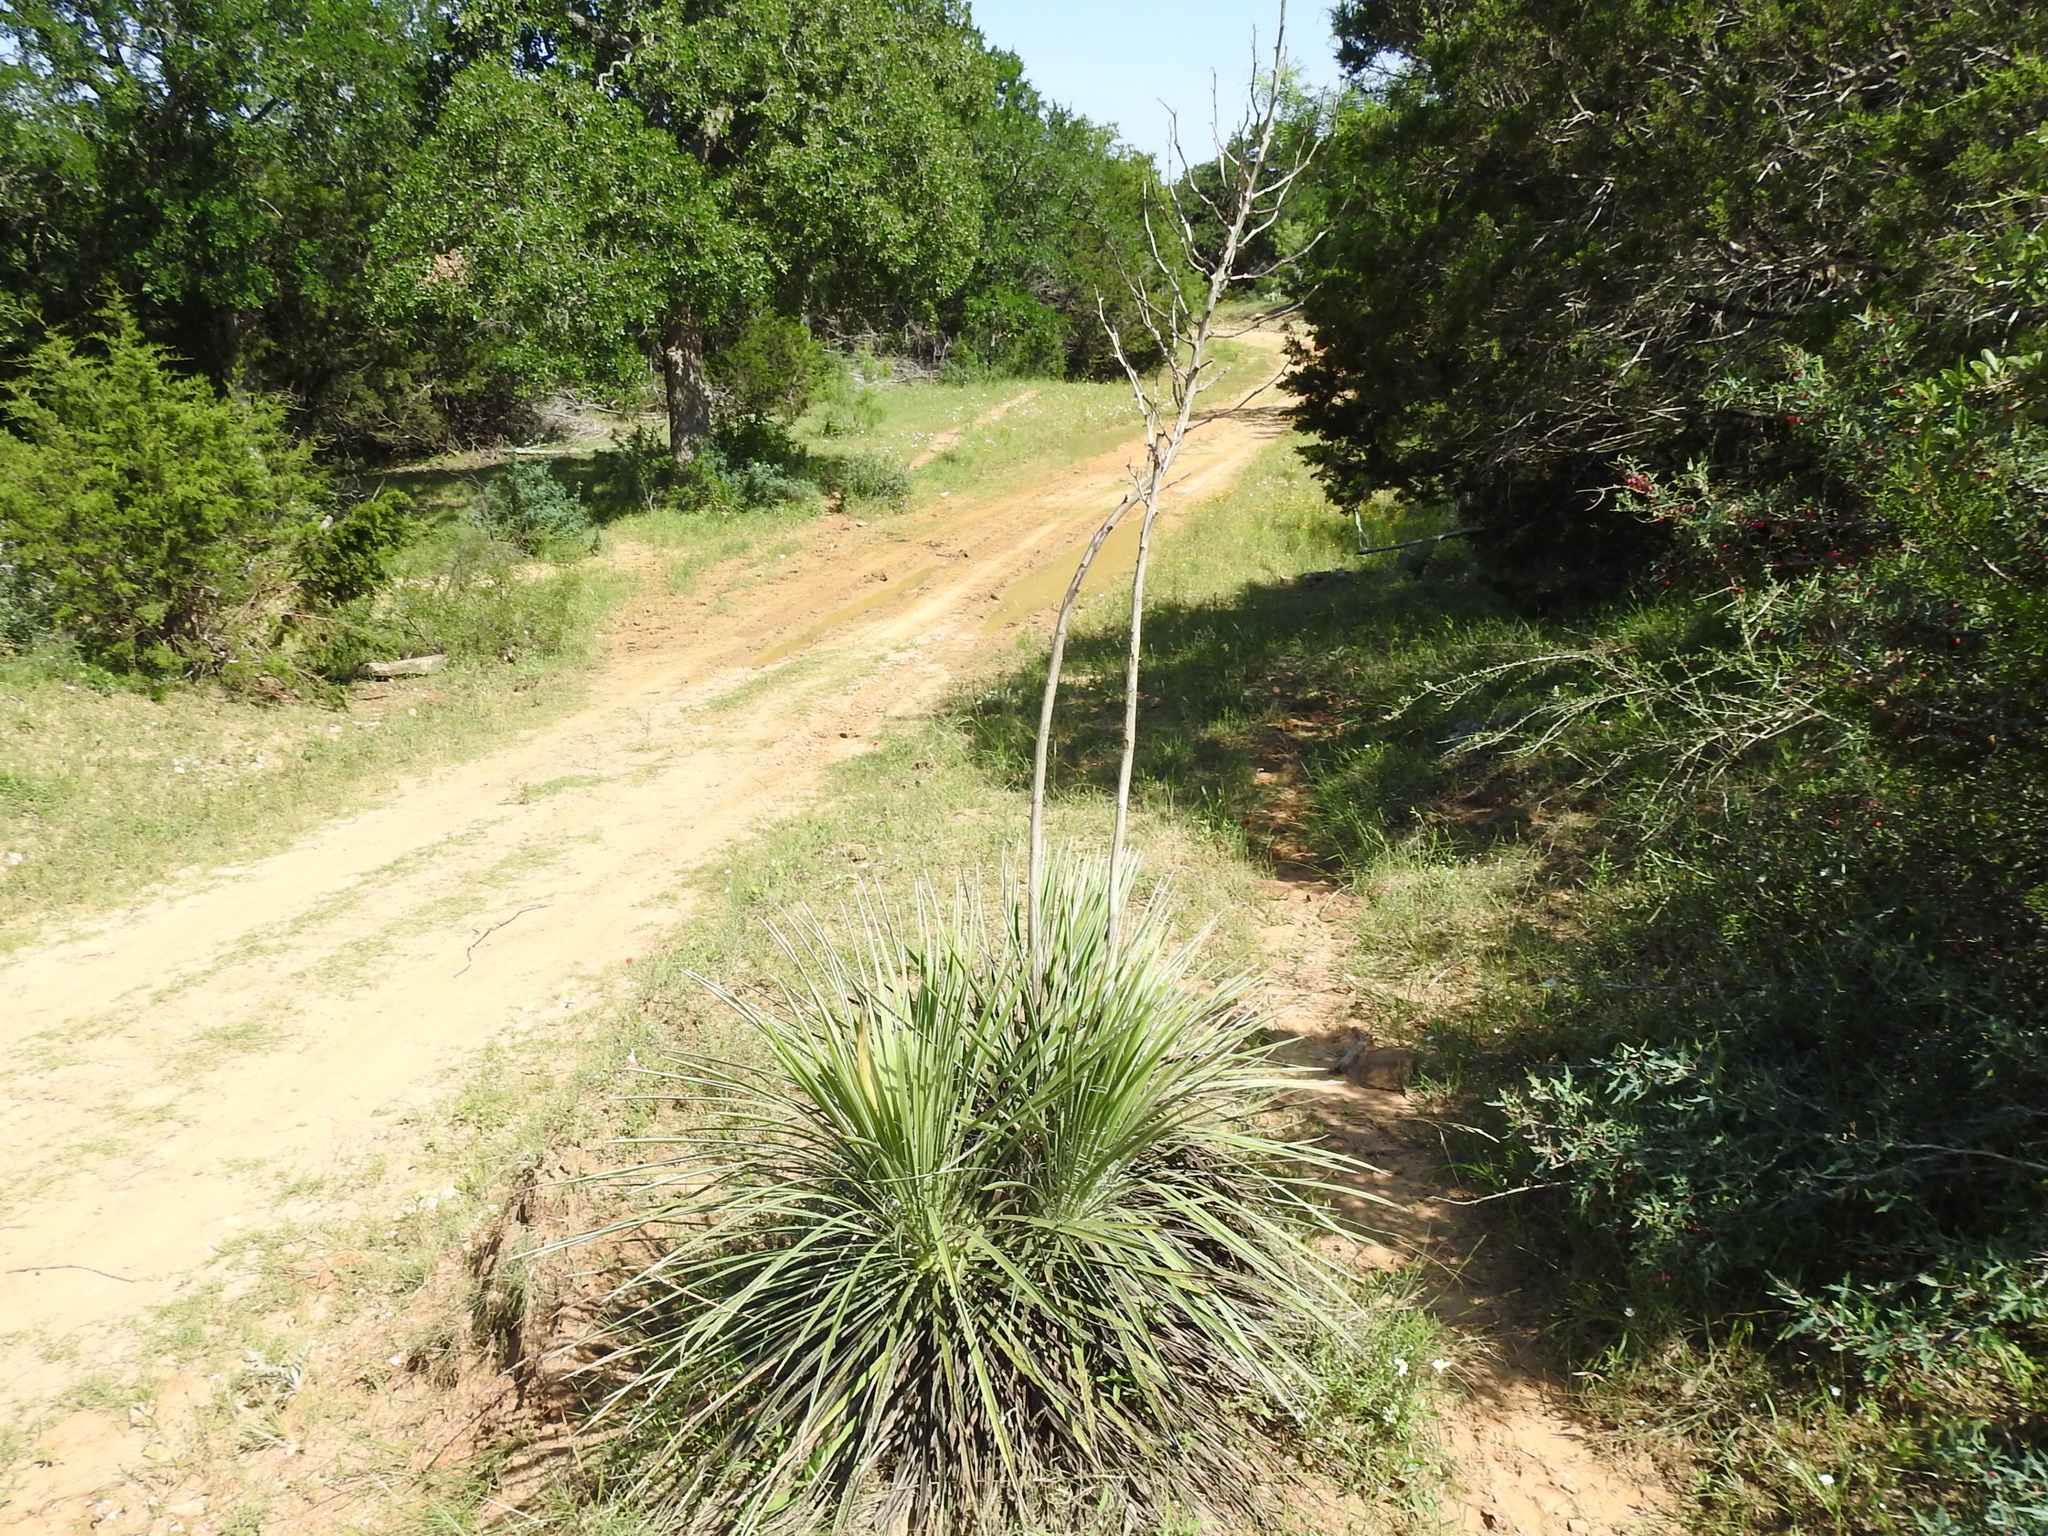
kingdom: Plantae
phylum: Tracheophyta
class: Liliopsida
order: Asparagales
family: Asparagaceae
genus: Yucca
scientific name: Yucca constricta
